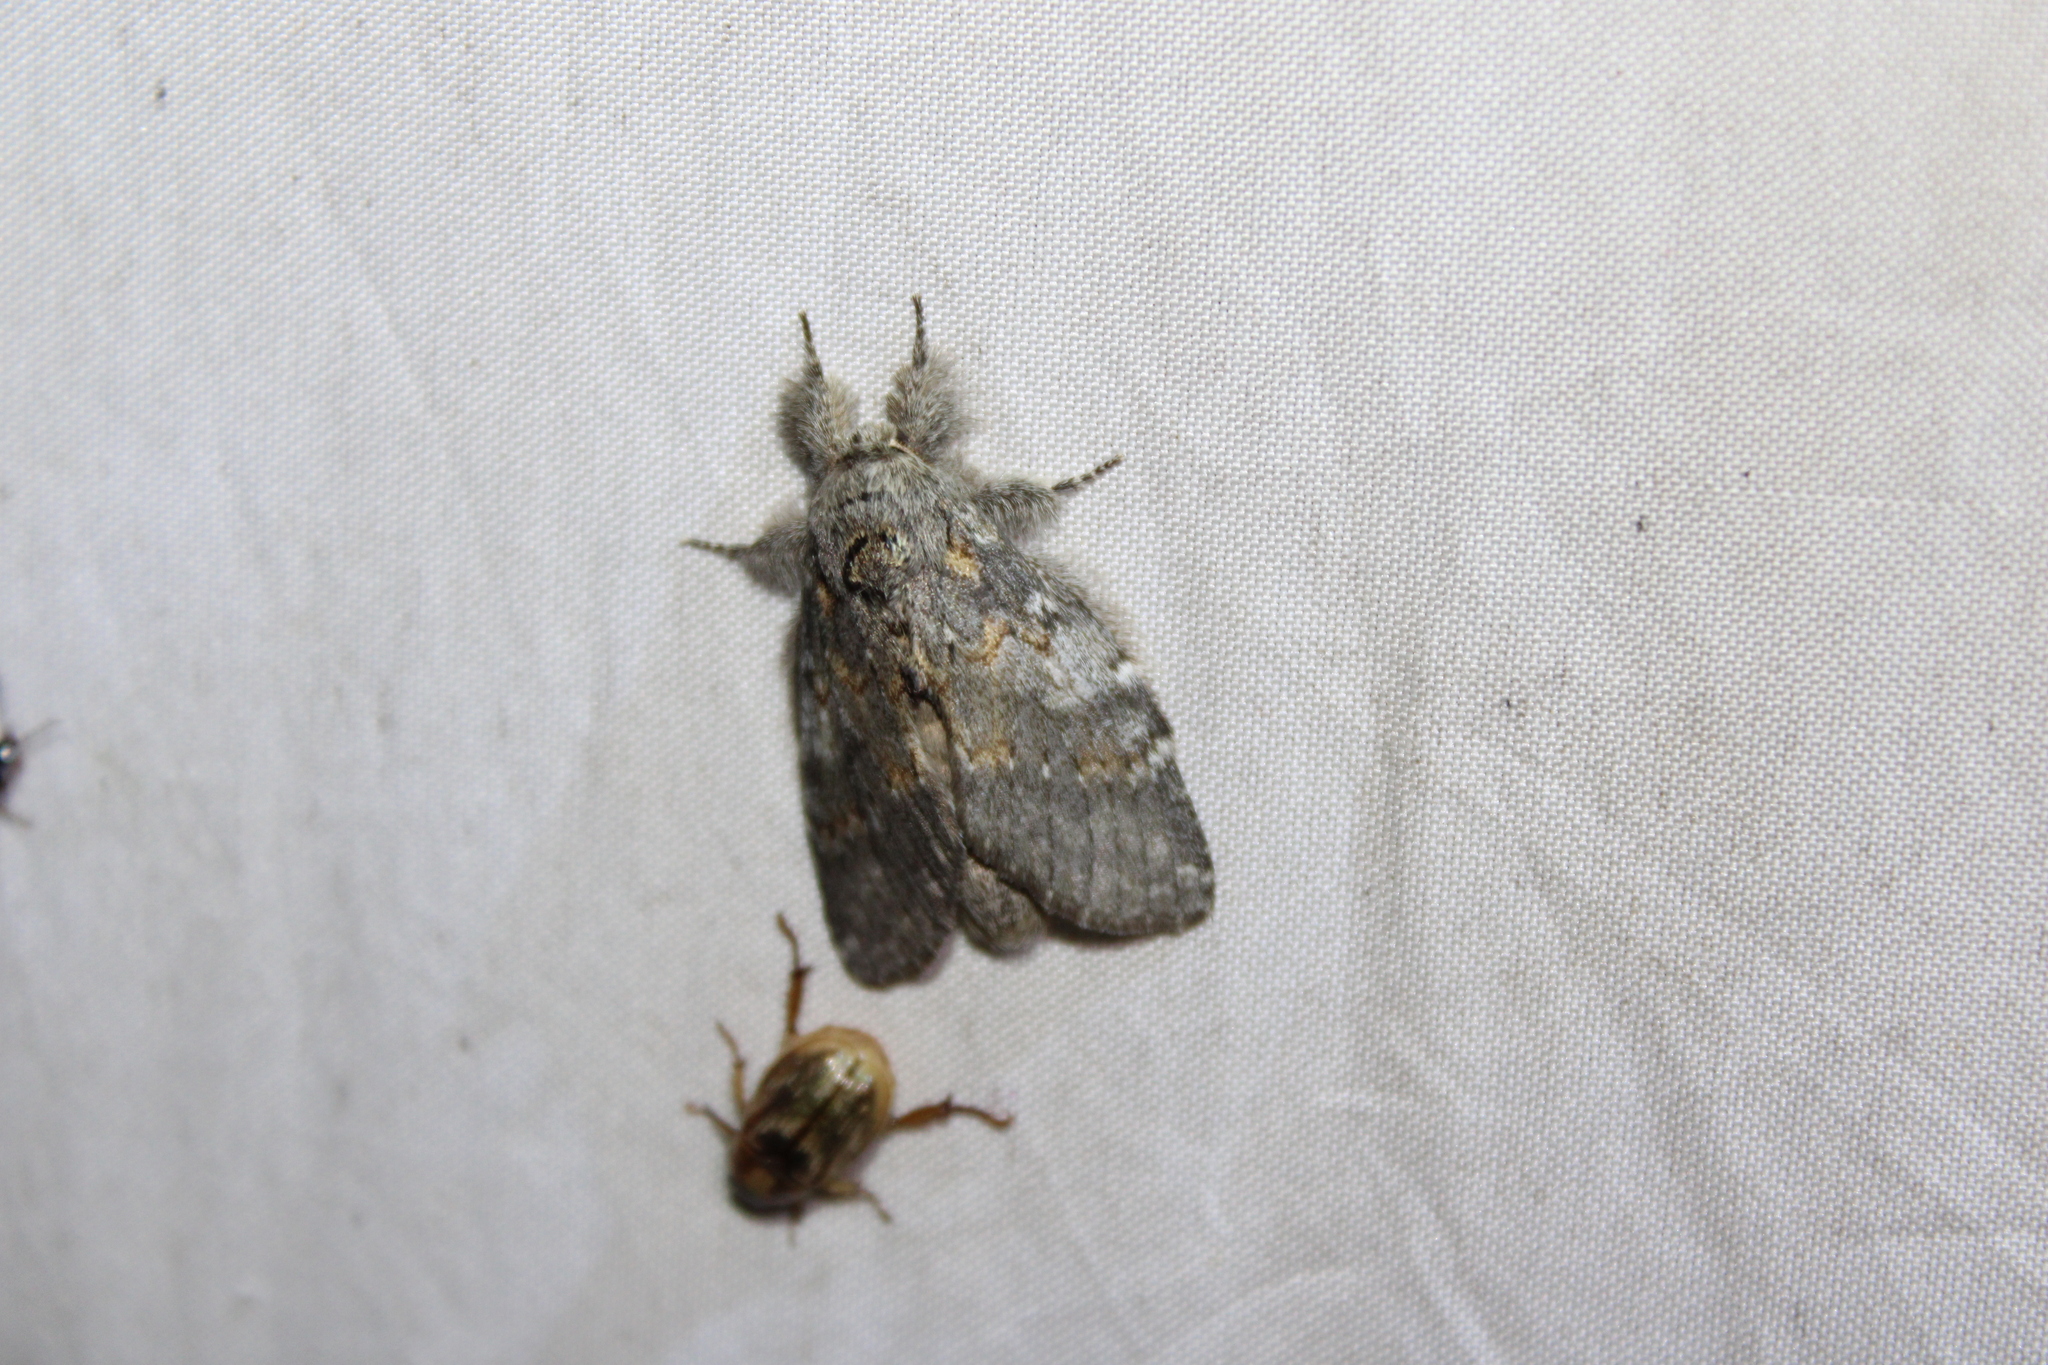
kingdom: Animalia
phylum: Arthropoda
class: Insecta
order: Lepidoptera
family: Notodontidae
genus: Peridea
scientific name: Peridea angulosa
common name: Angulose prominent
